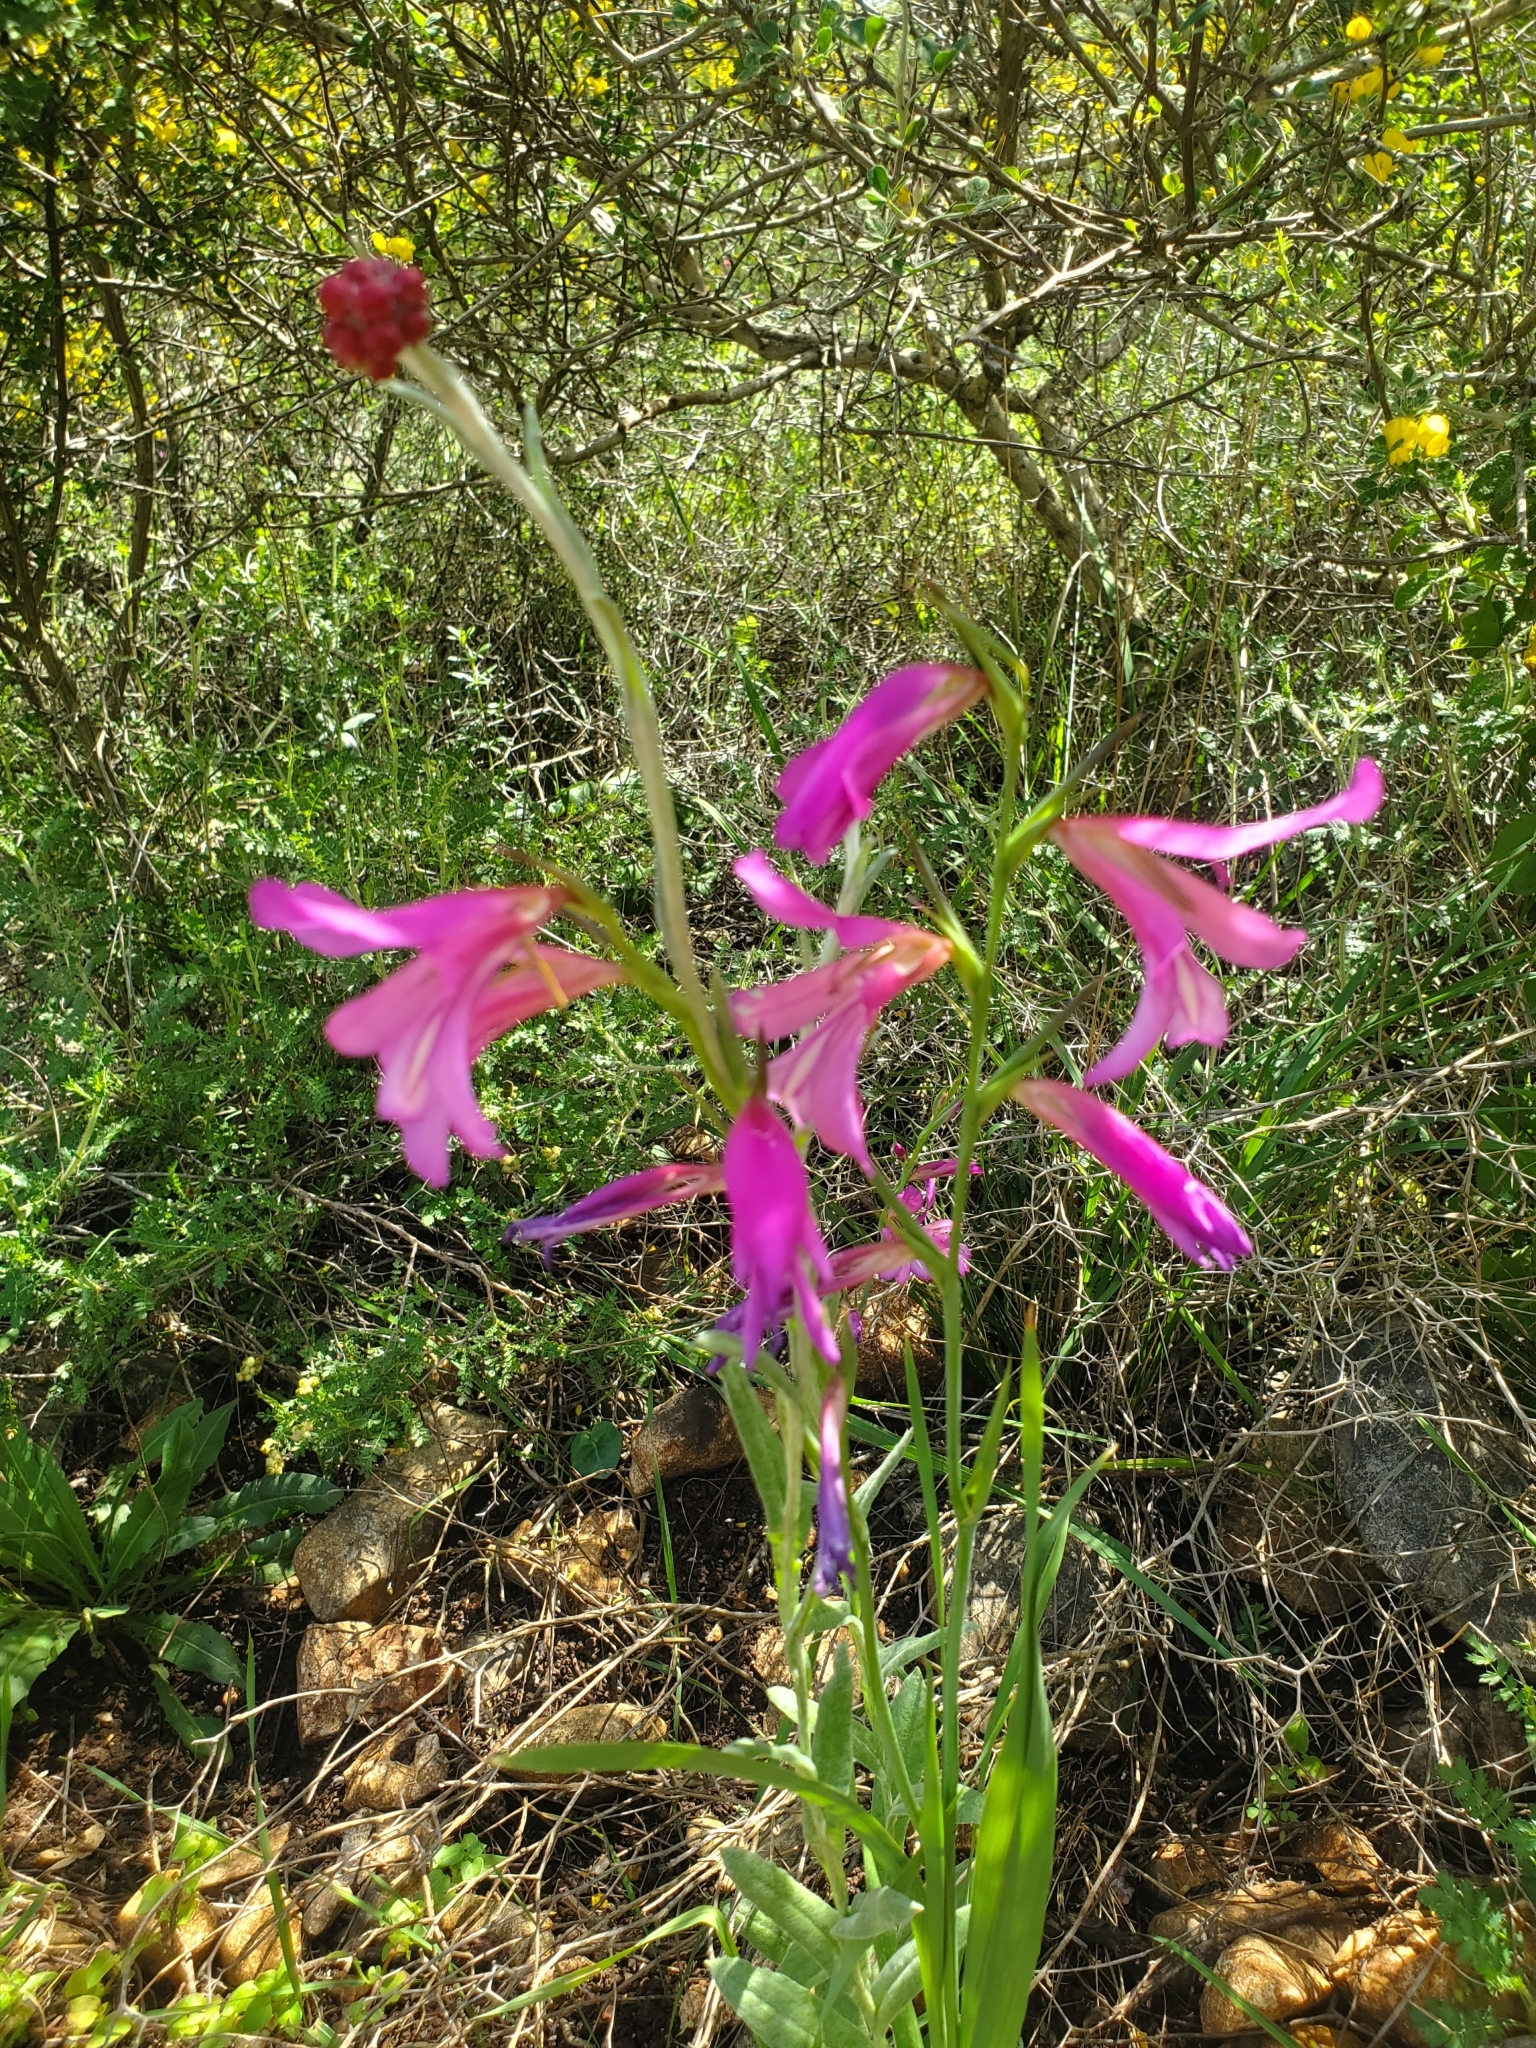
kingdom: Plantae
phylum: Tracheophyta
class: Liliopsida
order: Asparagales
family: Iridaceae
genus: Gladiolus
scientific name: Gladiolus italicus
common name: Field gladiolus
